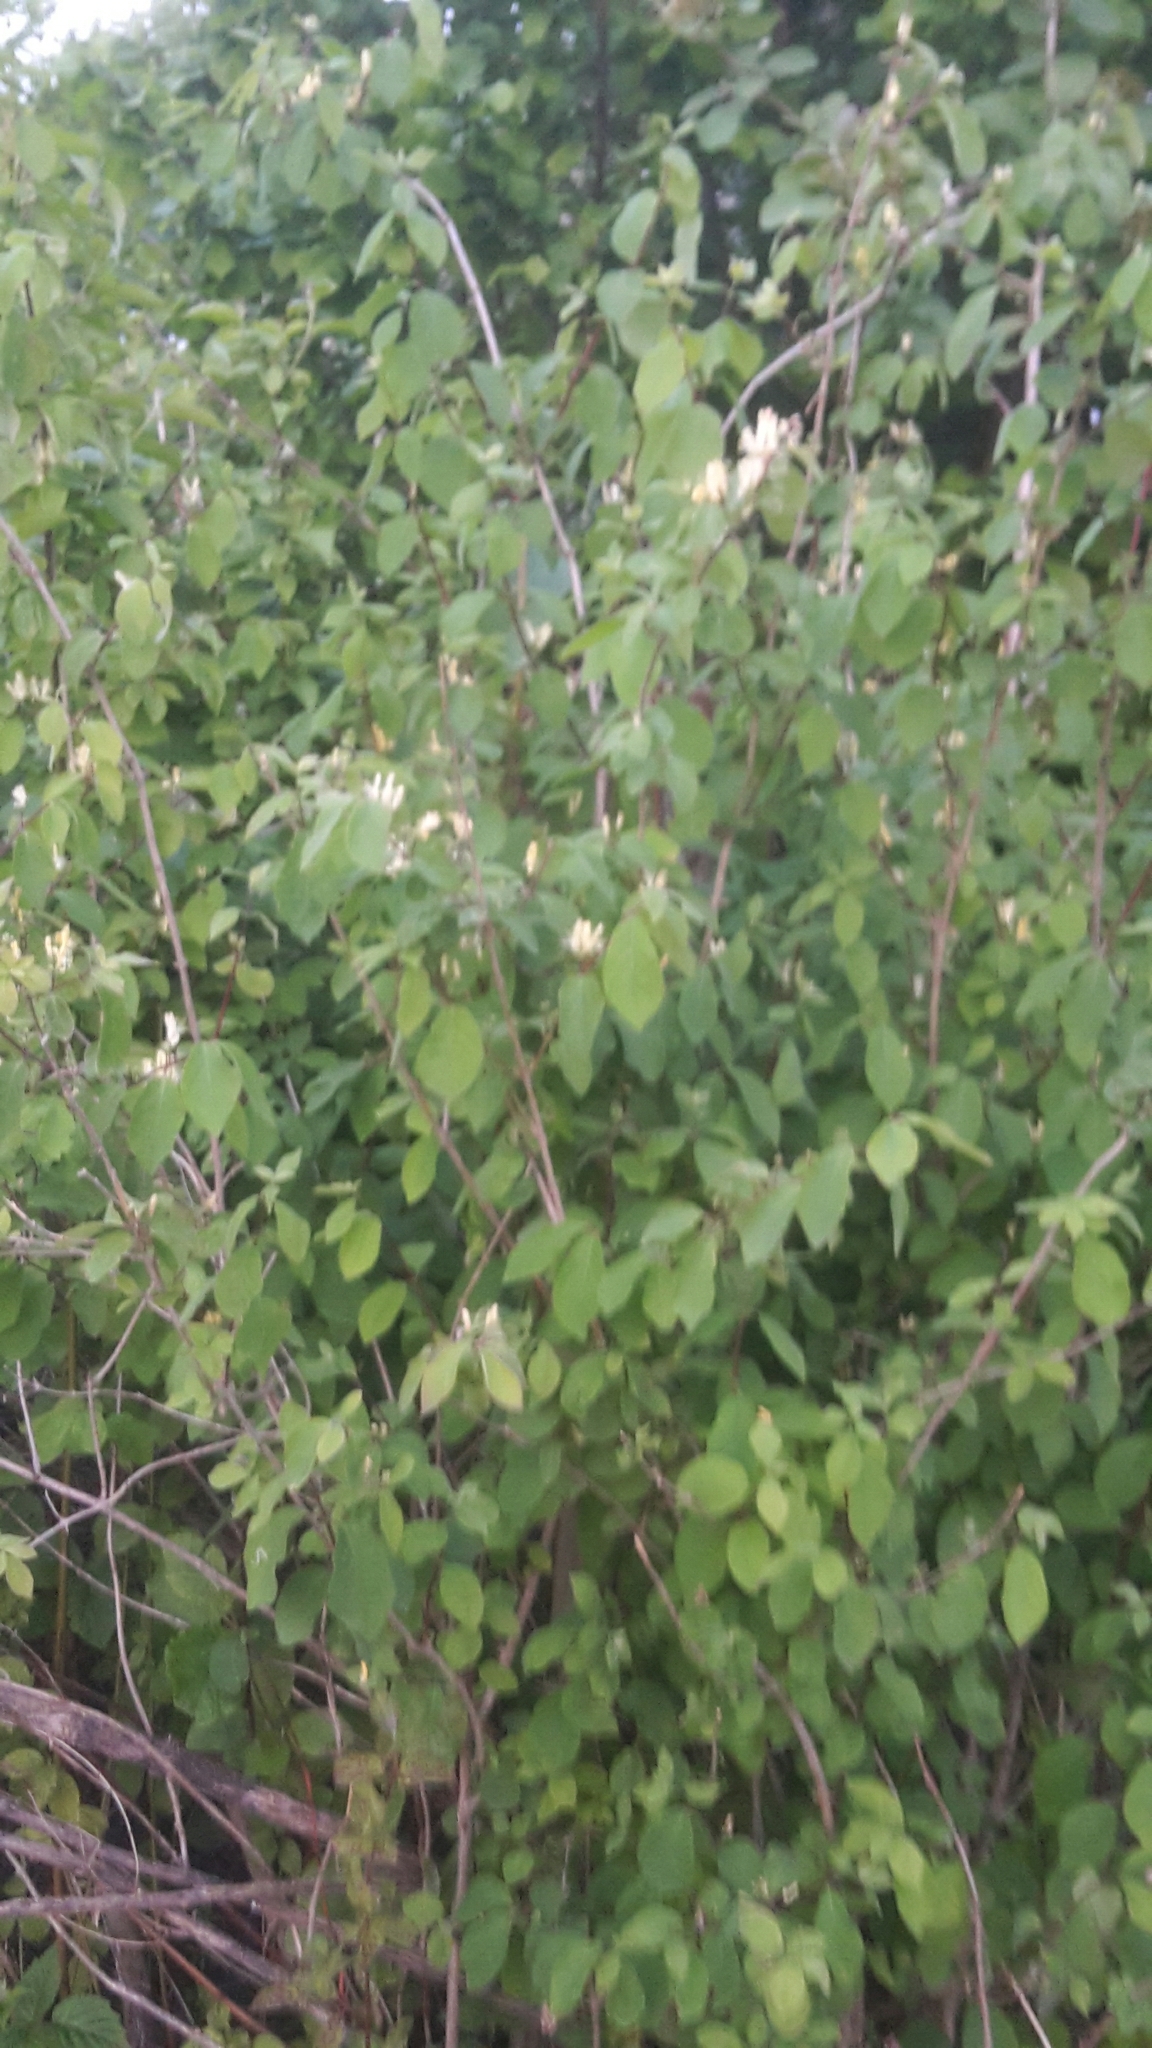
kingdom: Plantae
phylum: Tracheophyta
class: Magnoliopsida
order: Dipsacales
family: Caprifoliaceae
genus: Lonicera
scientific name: Lonicera xylosteum
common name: Fly honeysuckle
